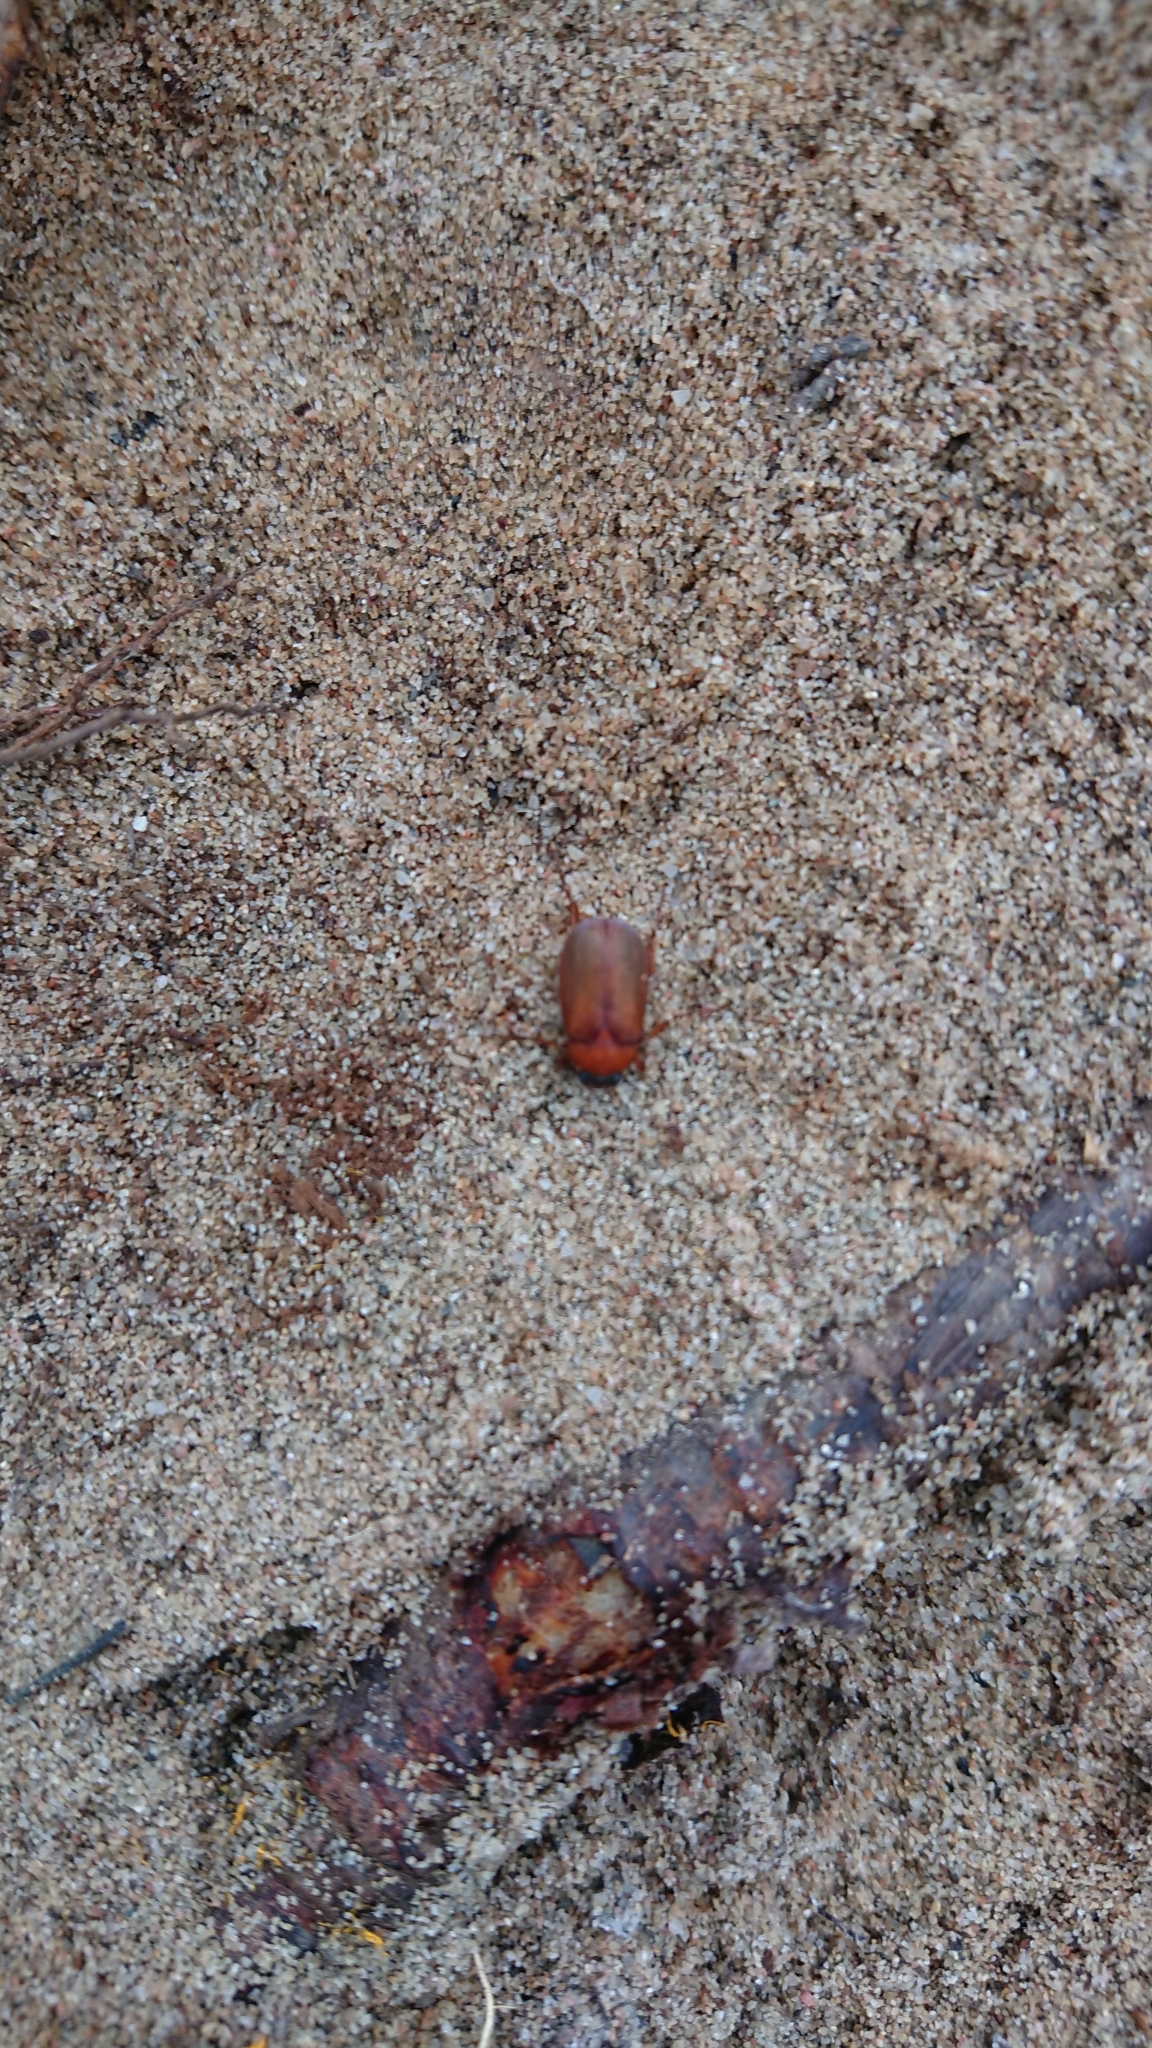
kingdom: Animalia
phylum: Arthropoda
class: Insecta
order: Coleoptera
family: Scarabaeidae
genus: Serica
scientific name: Serica brunnea
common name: Brown chafer
